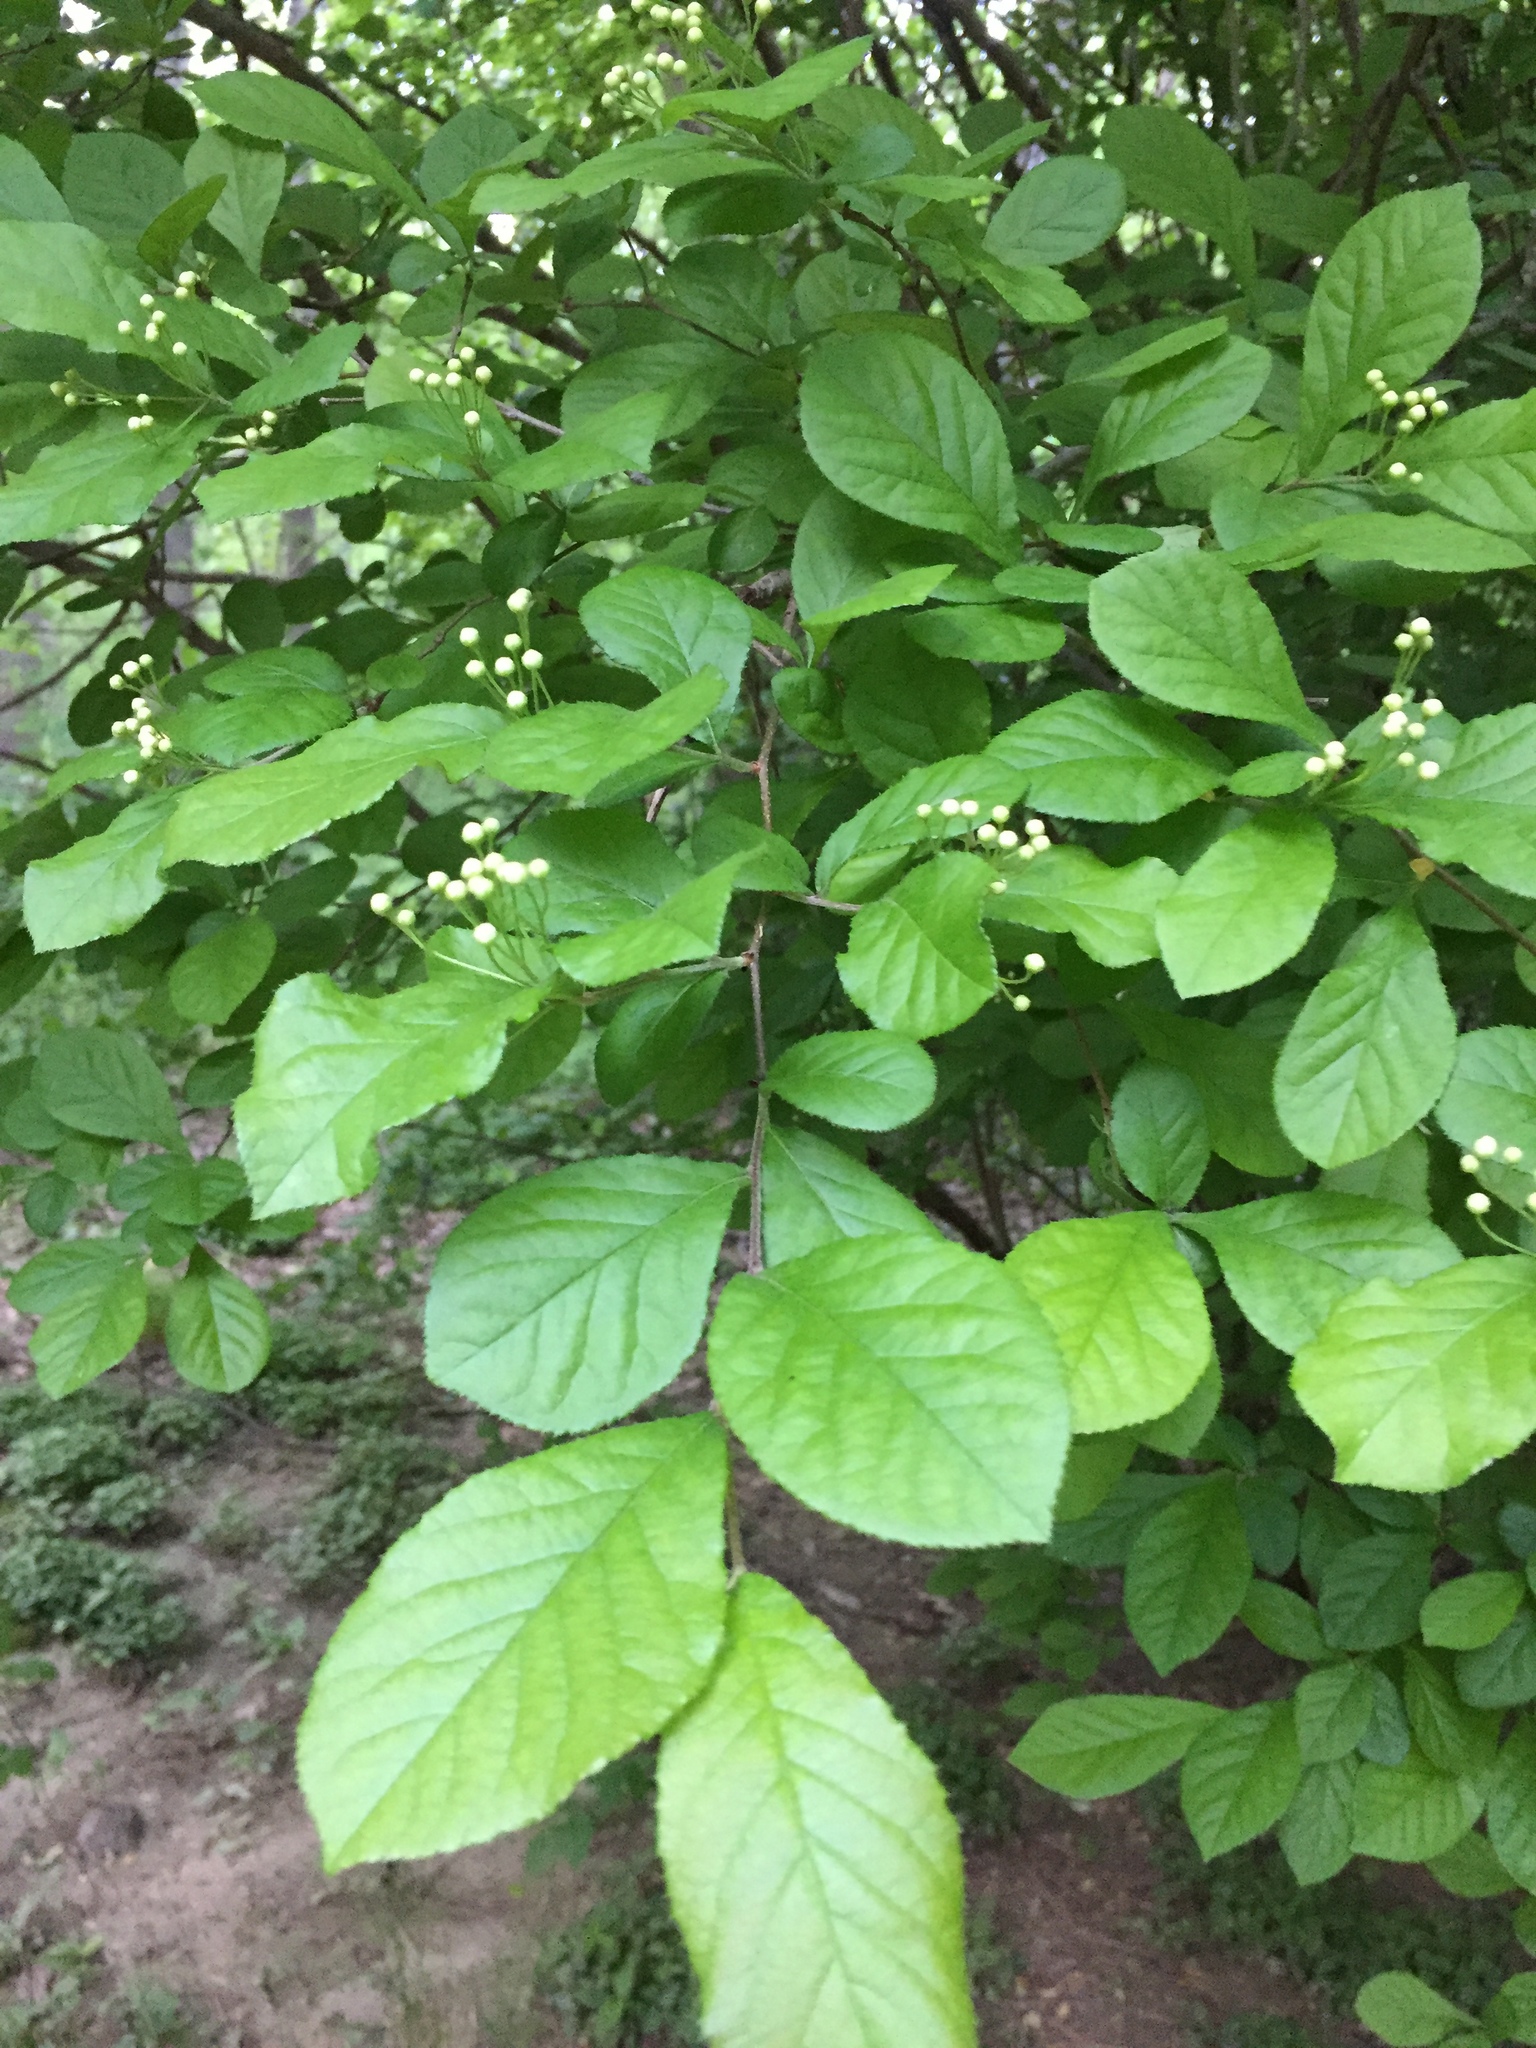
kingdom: Plantae
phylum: Tracheophyta
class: Magnoliopsida
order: Rosales
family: Rosaceae
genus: Pourthiaea
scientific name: Pourthiaea villosa
